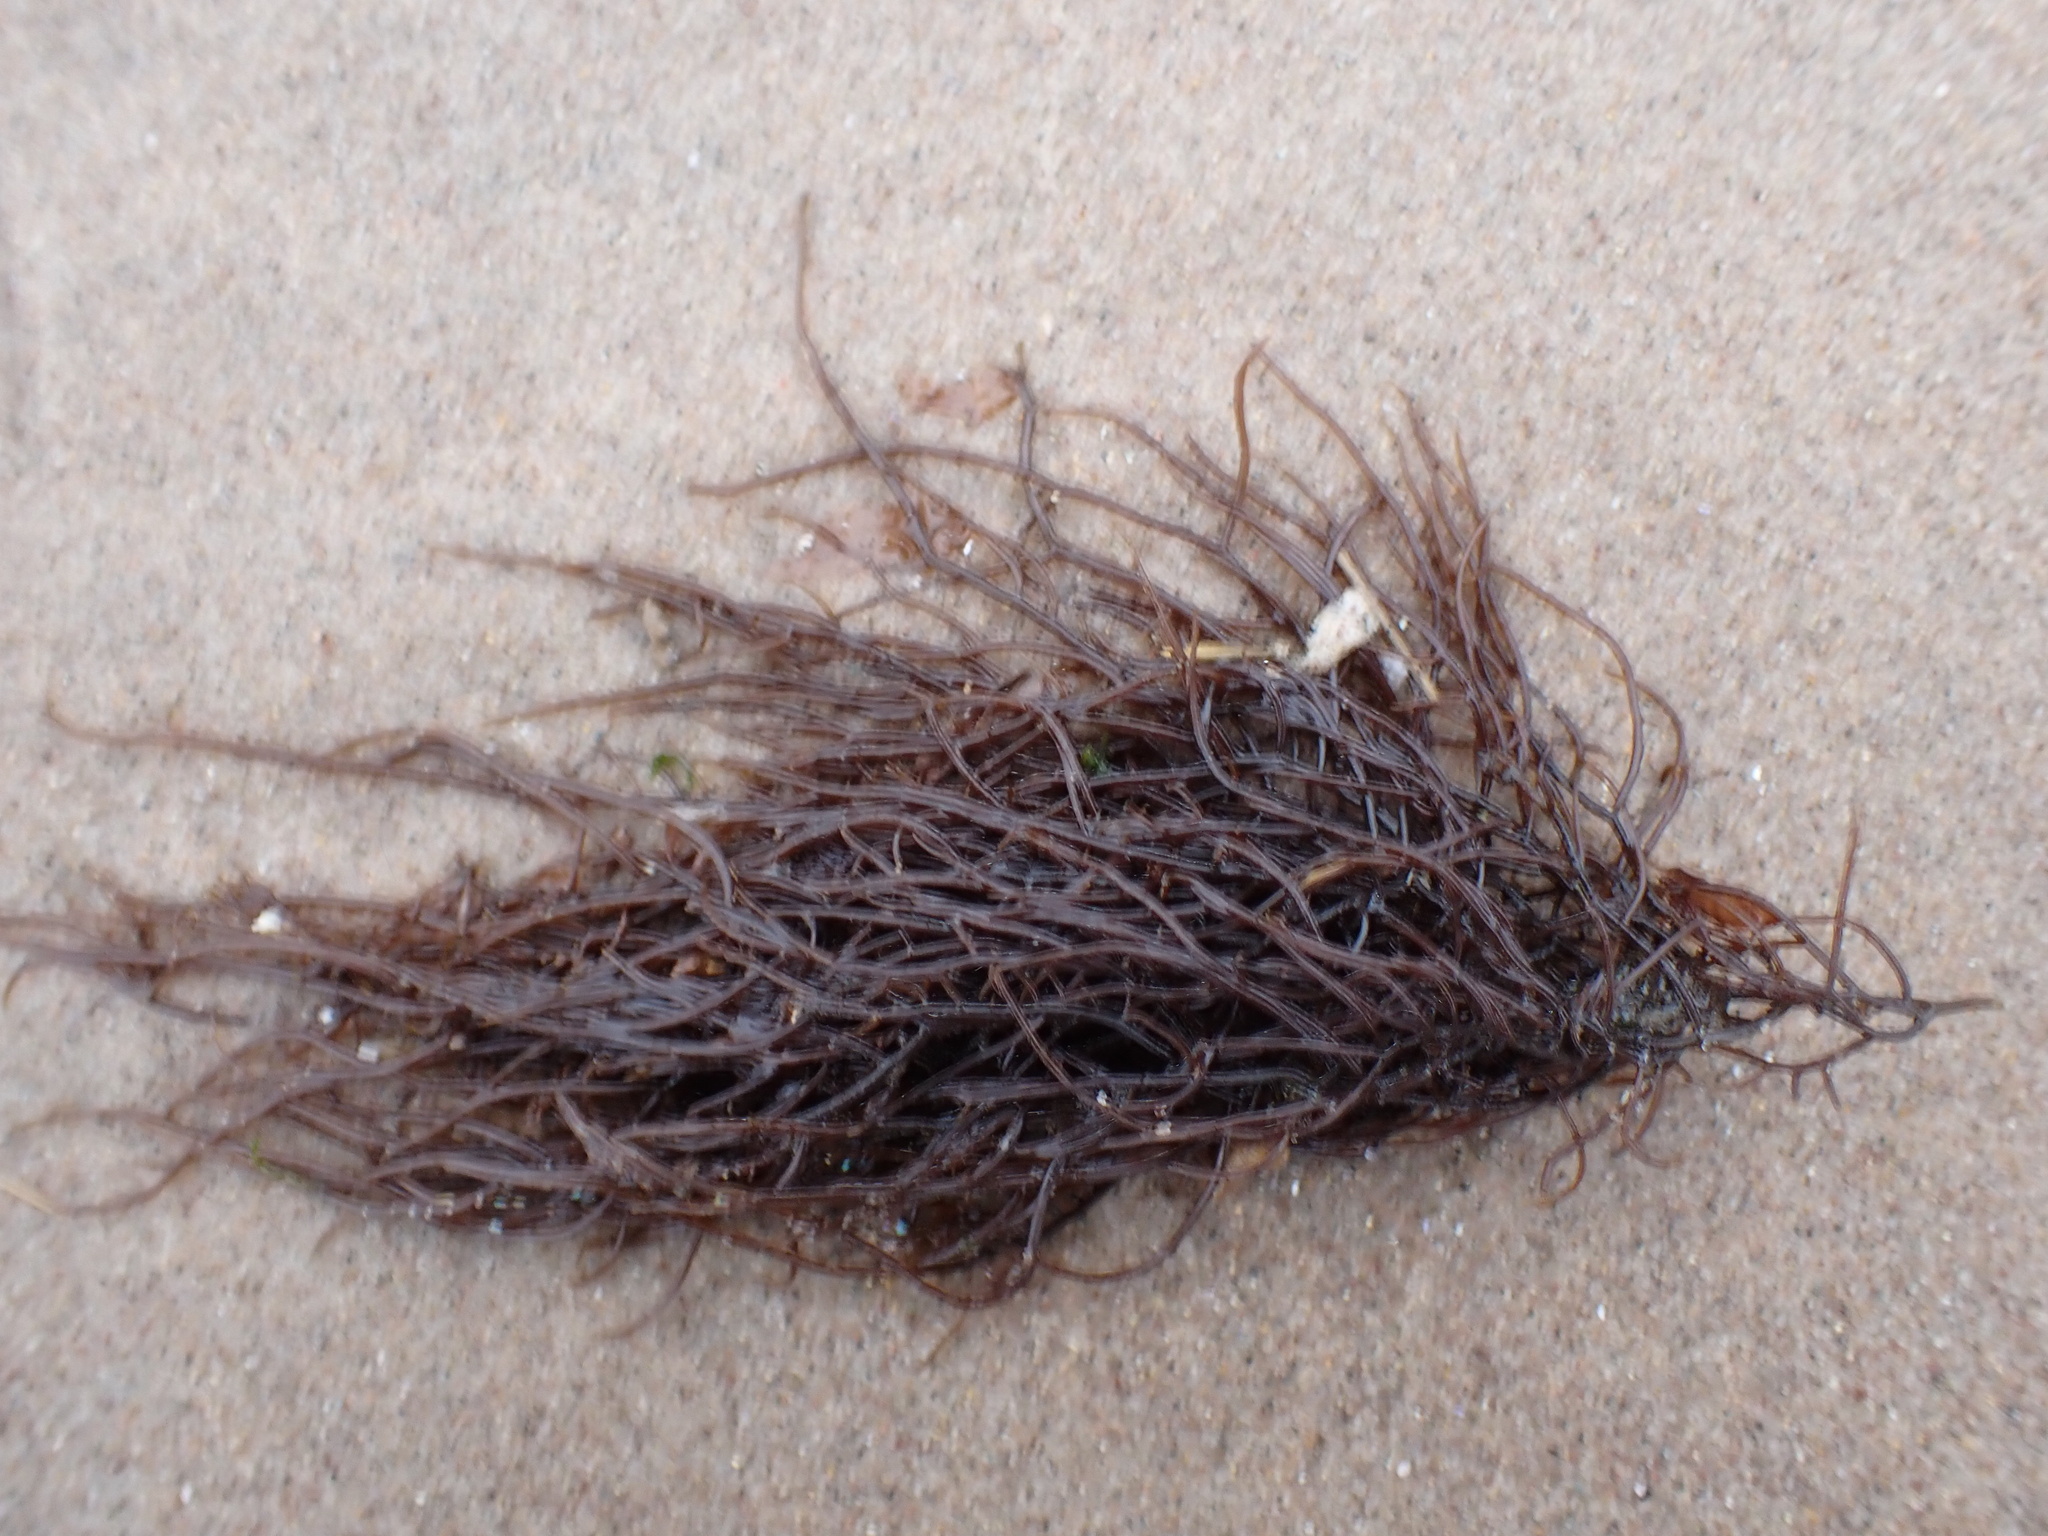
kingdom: Plantae
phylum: Rhodophyta
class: Florideophyceae
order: Gigartinales
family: Solieriaceae
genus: Sarcodiotheca
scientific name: Sarcodiotheca gaudichaudii
